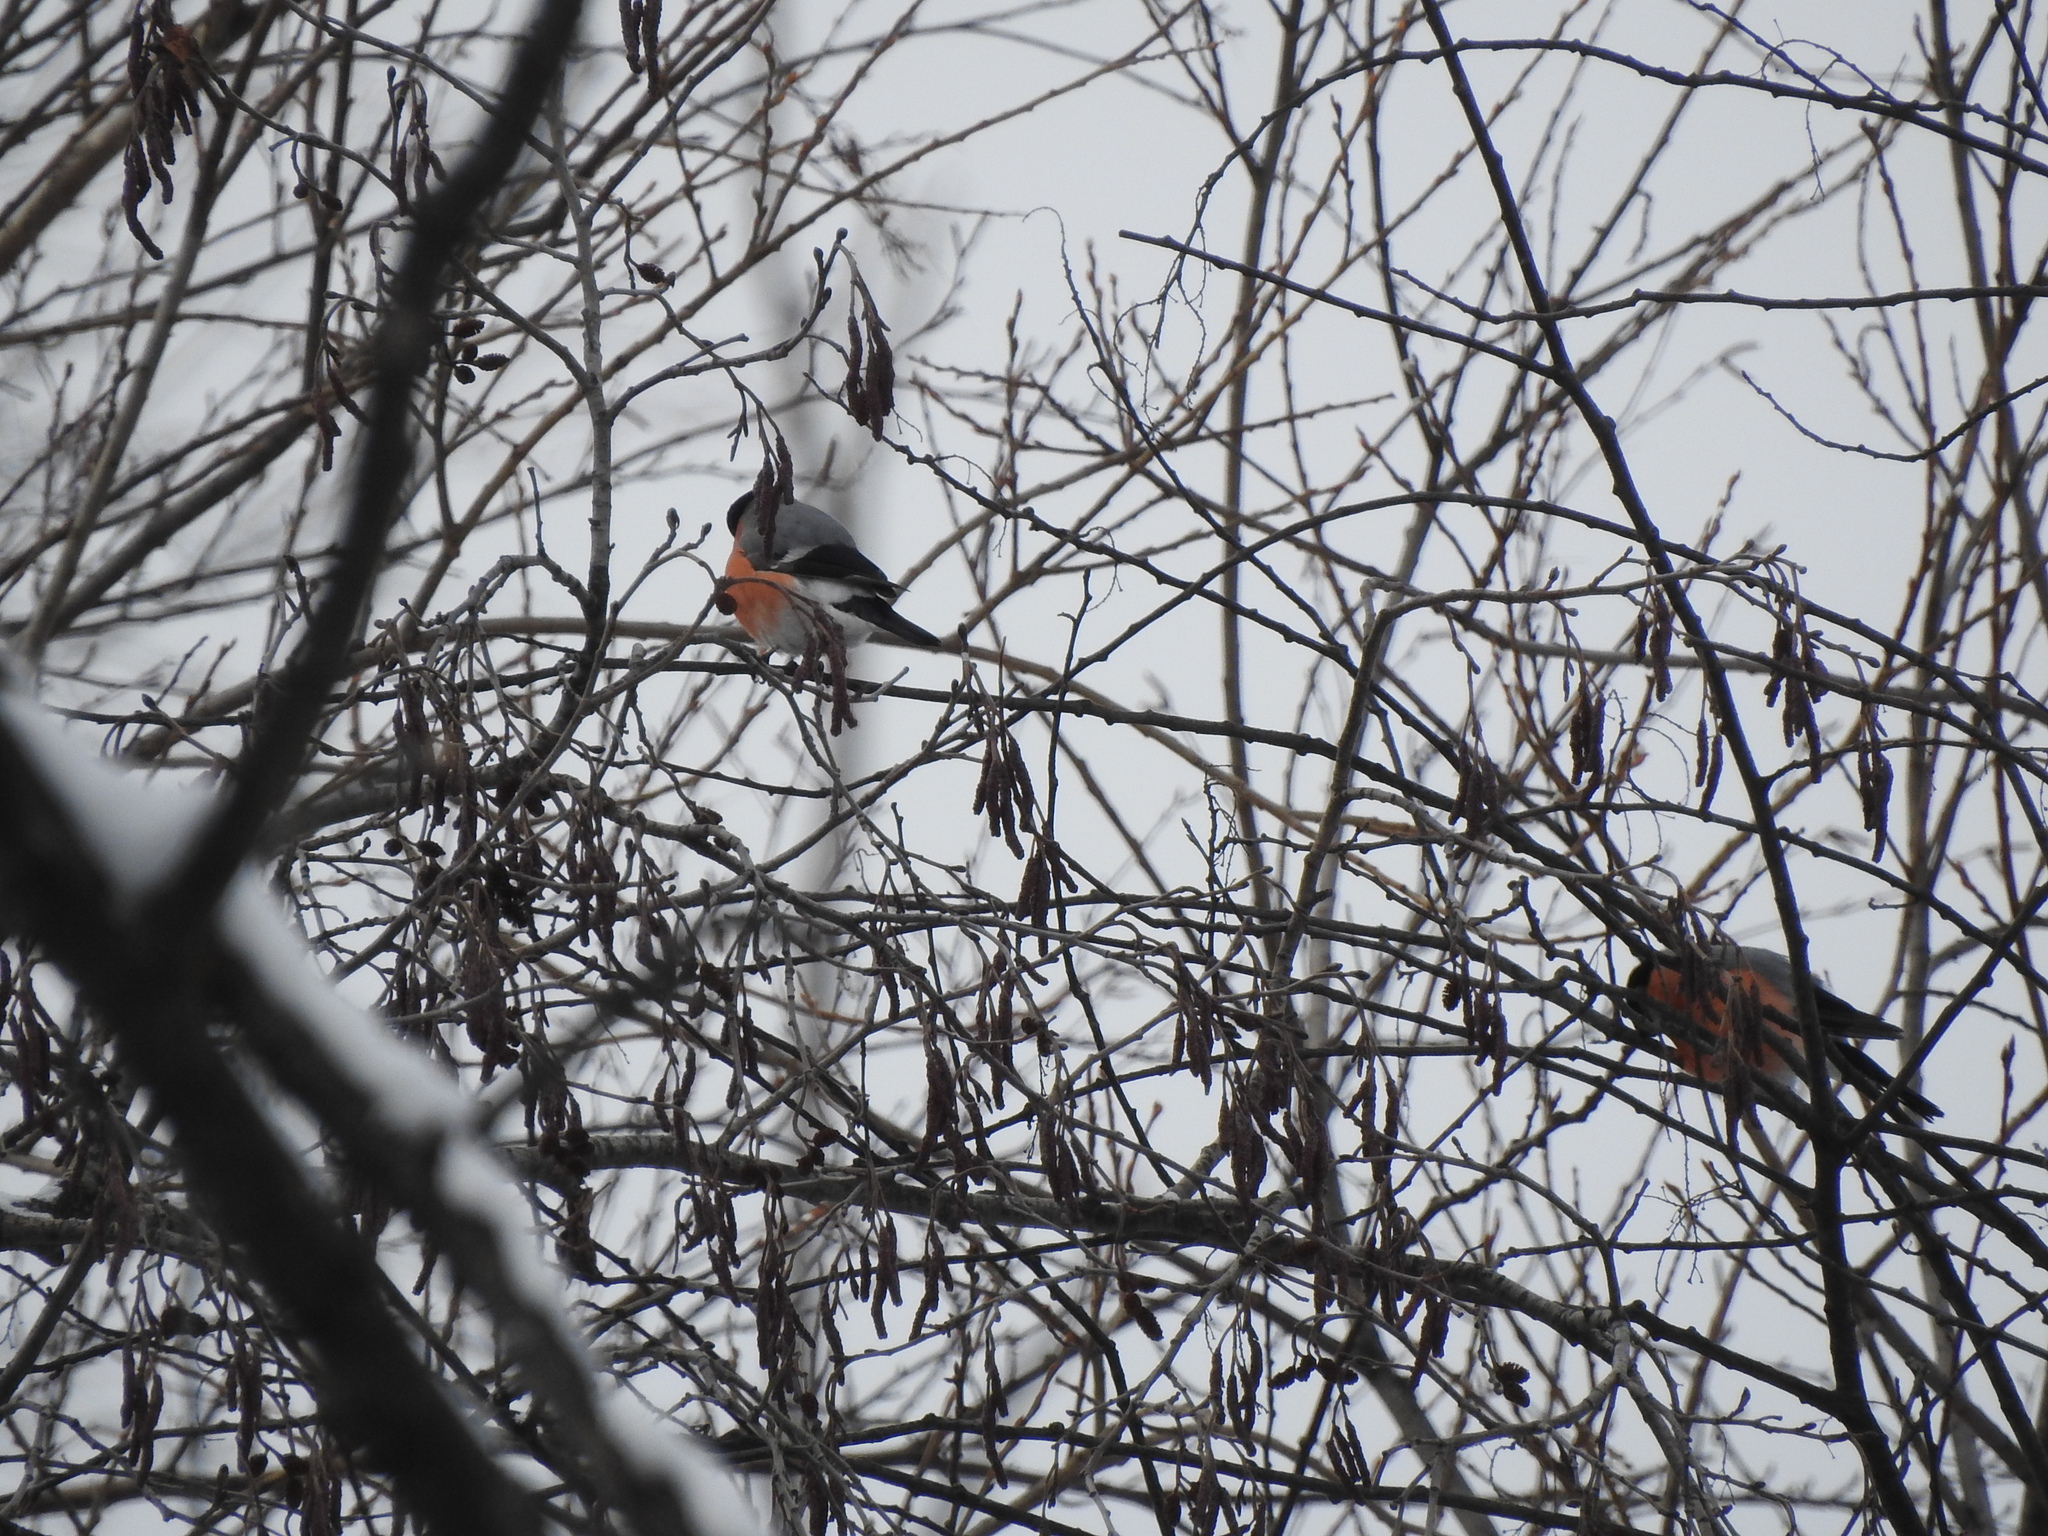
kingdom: Animalia
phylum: Chordata
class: Aves
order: Passeriformes
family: Fringillidae
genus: Pyrrhula
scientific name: Pyrrhula pyrrhula
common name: Eurasian bullfinch
